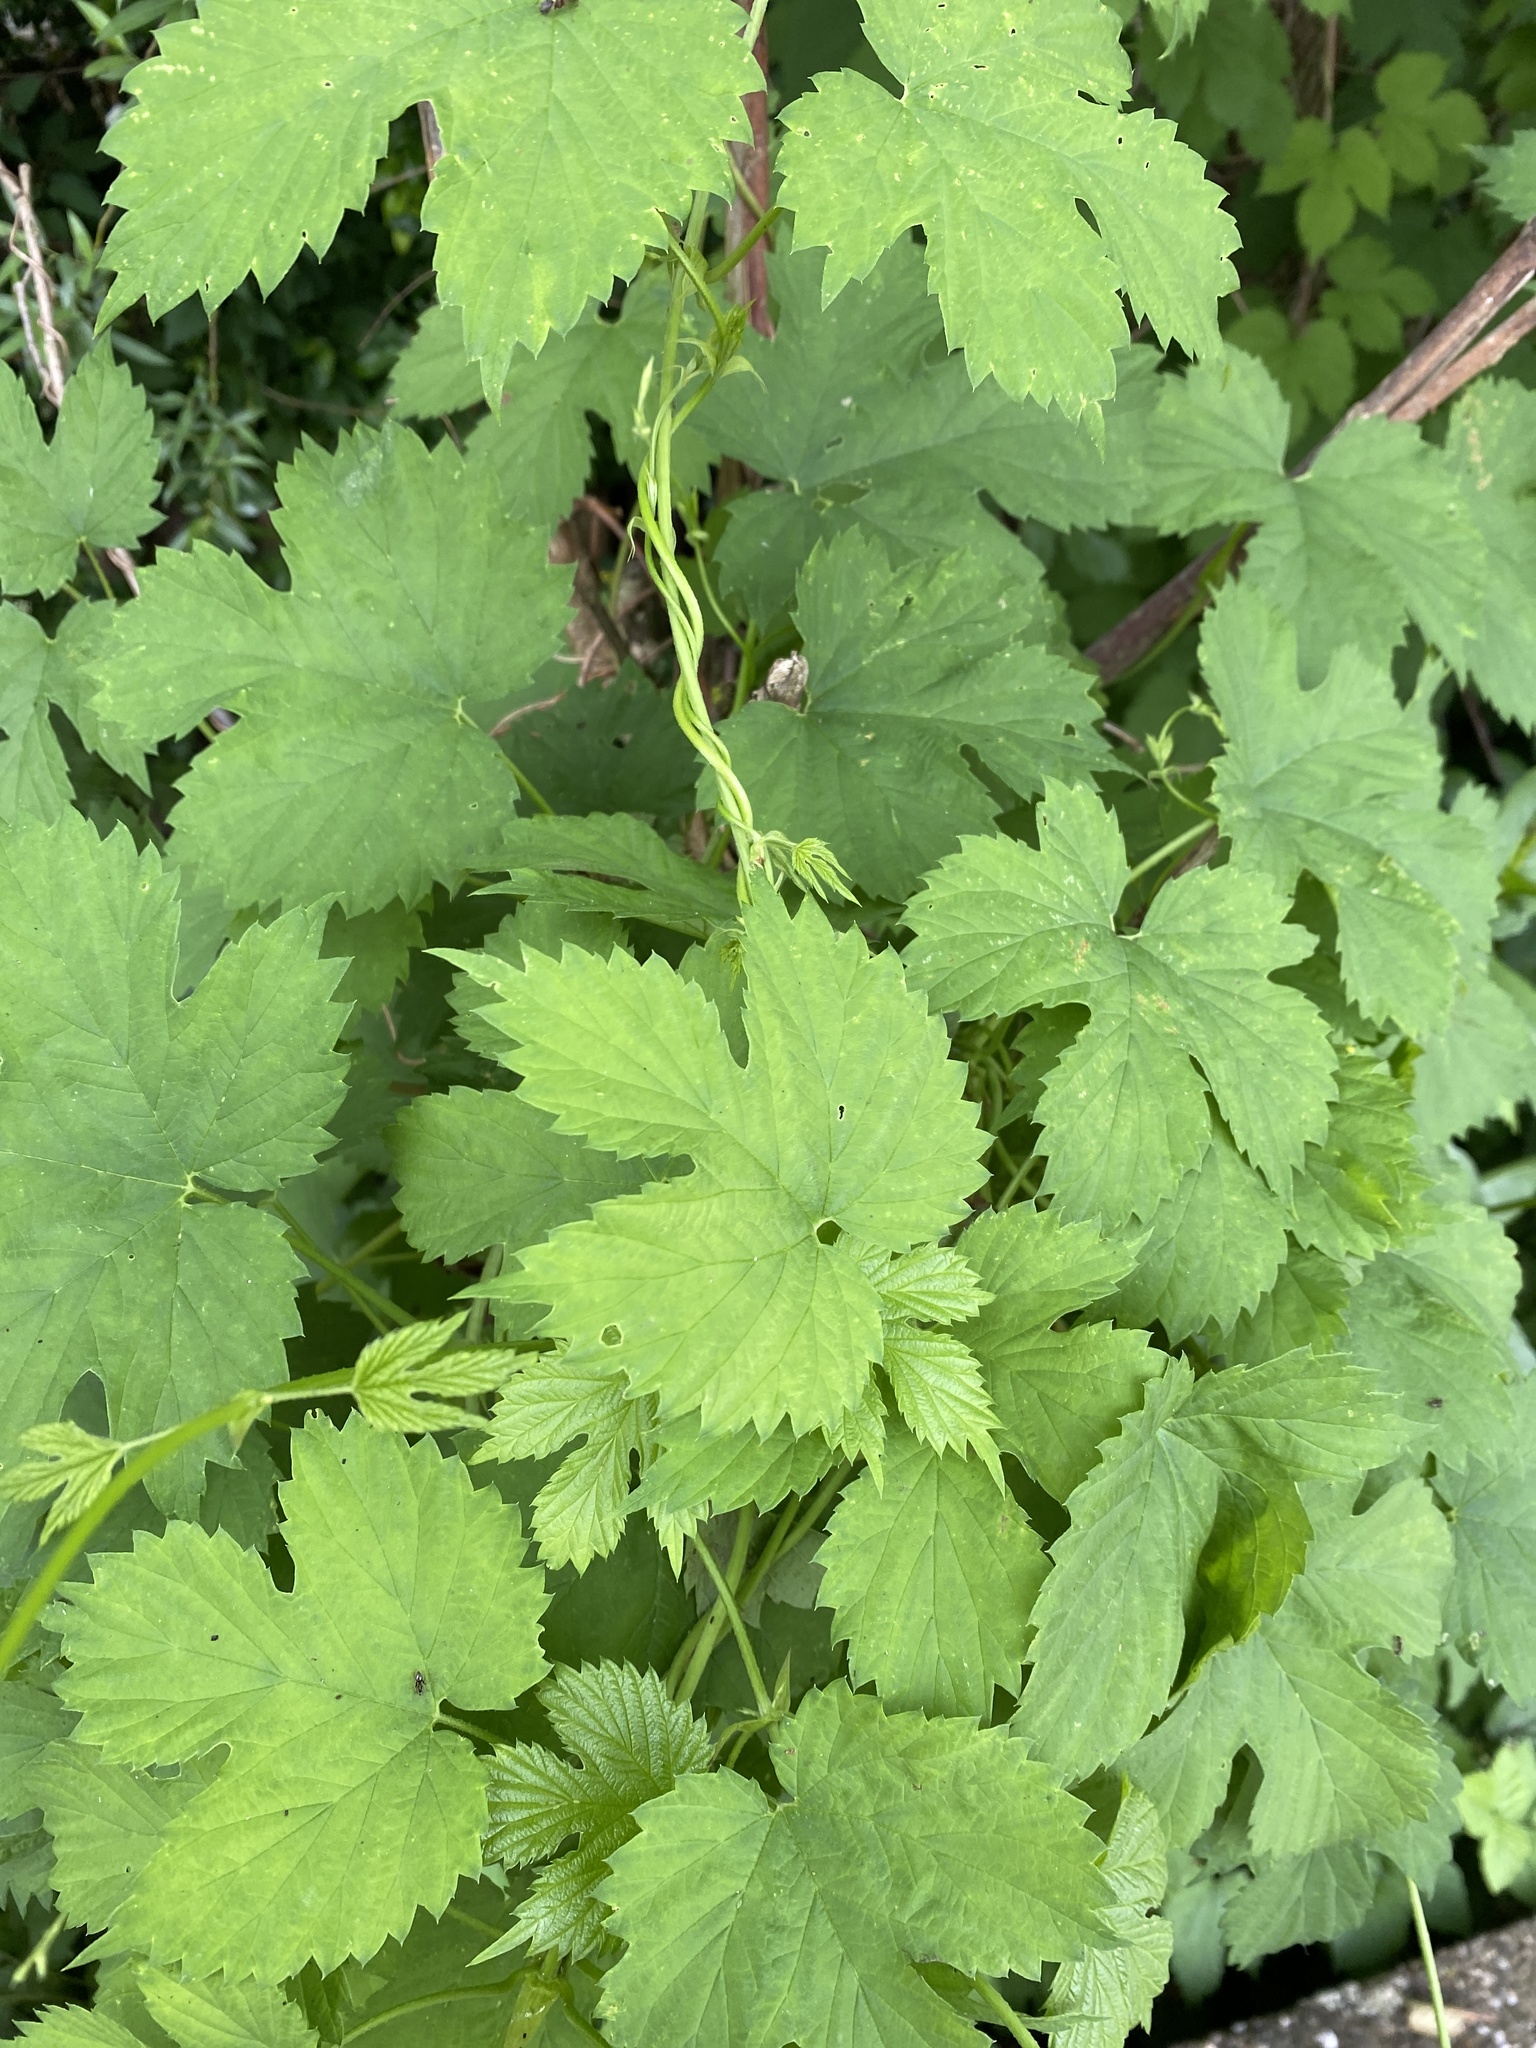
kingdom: Plantae
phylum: Tracheophyta
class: Magnoliopsida
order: Rosales
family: Cannabaceae
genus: Humulus
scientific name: Humulus lupulus
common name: Hop
